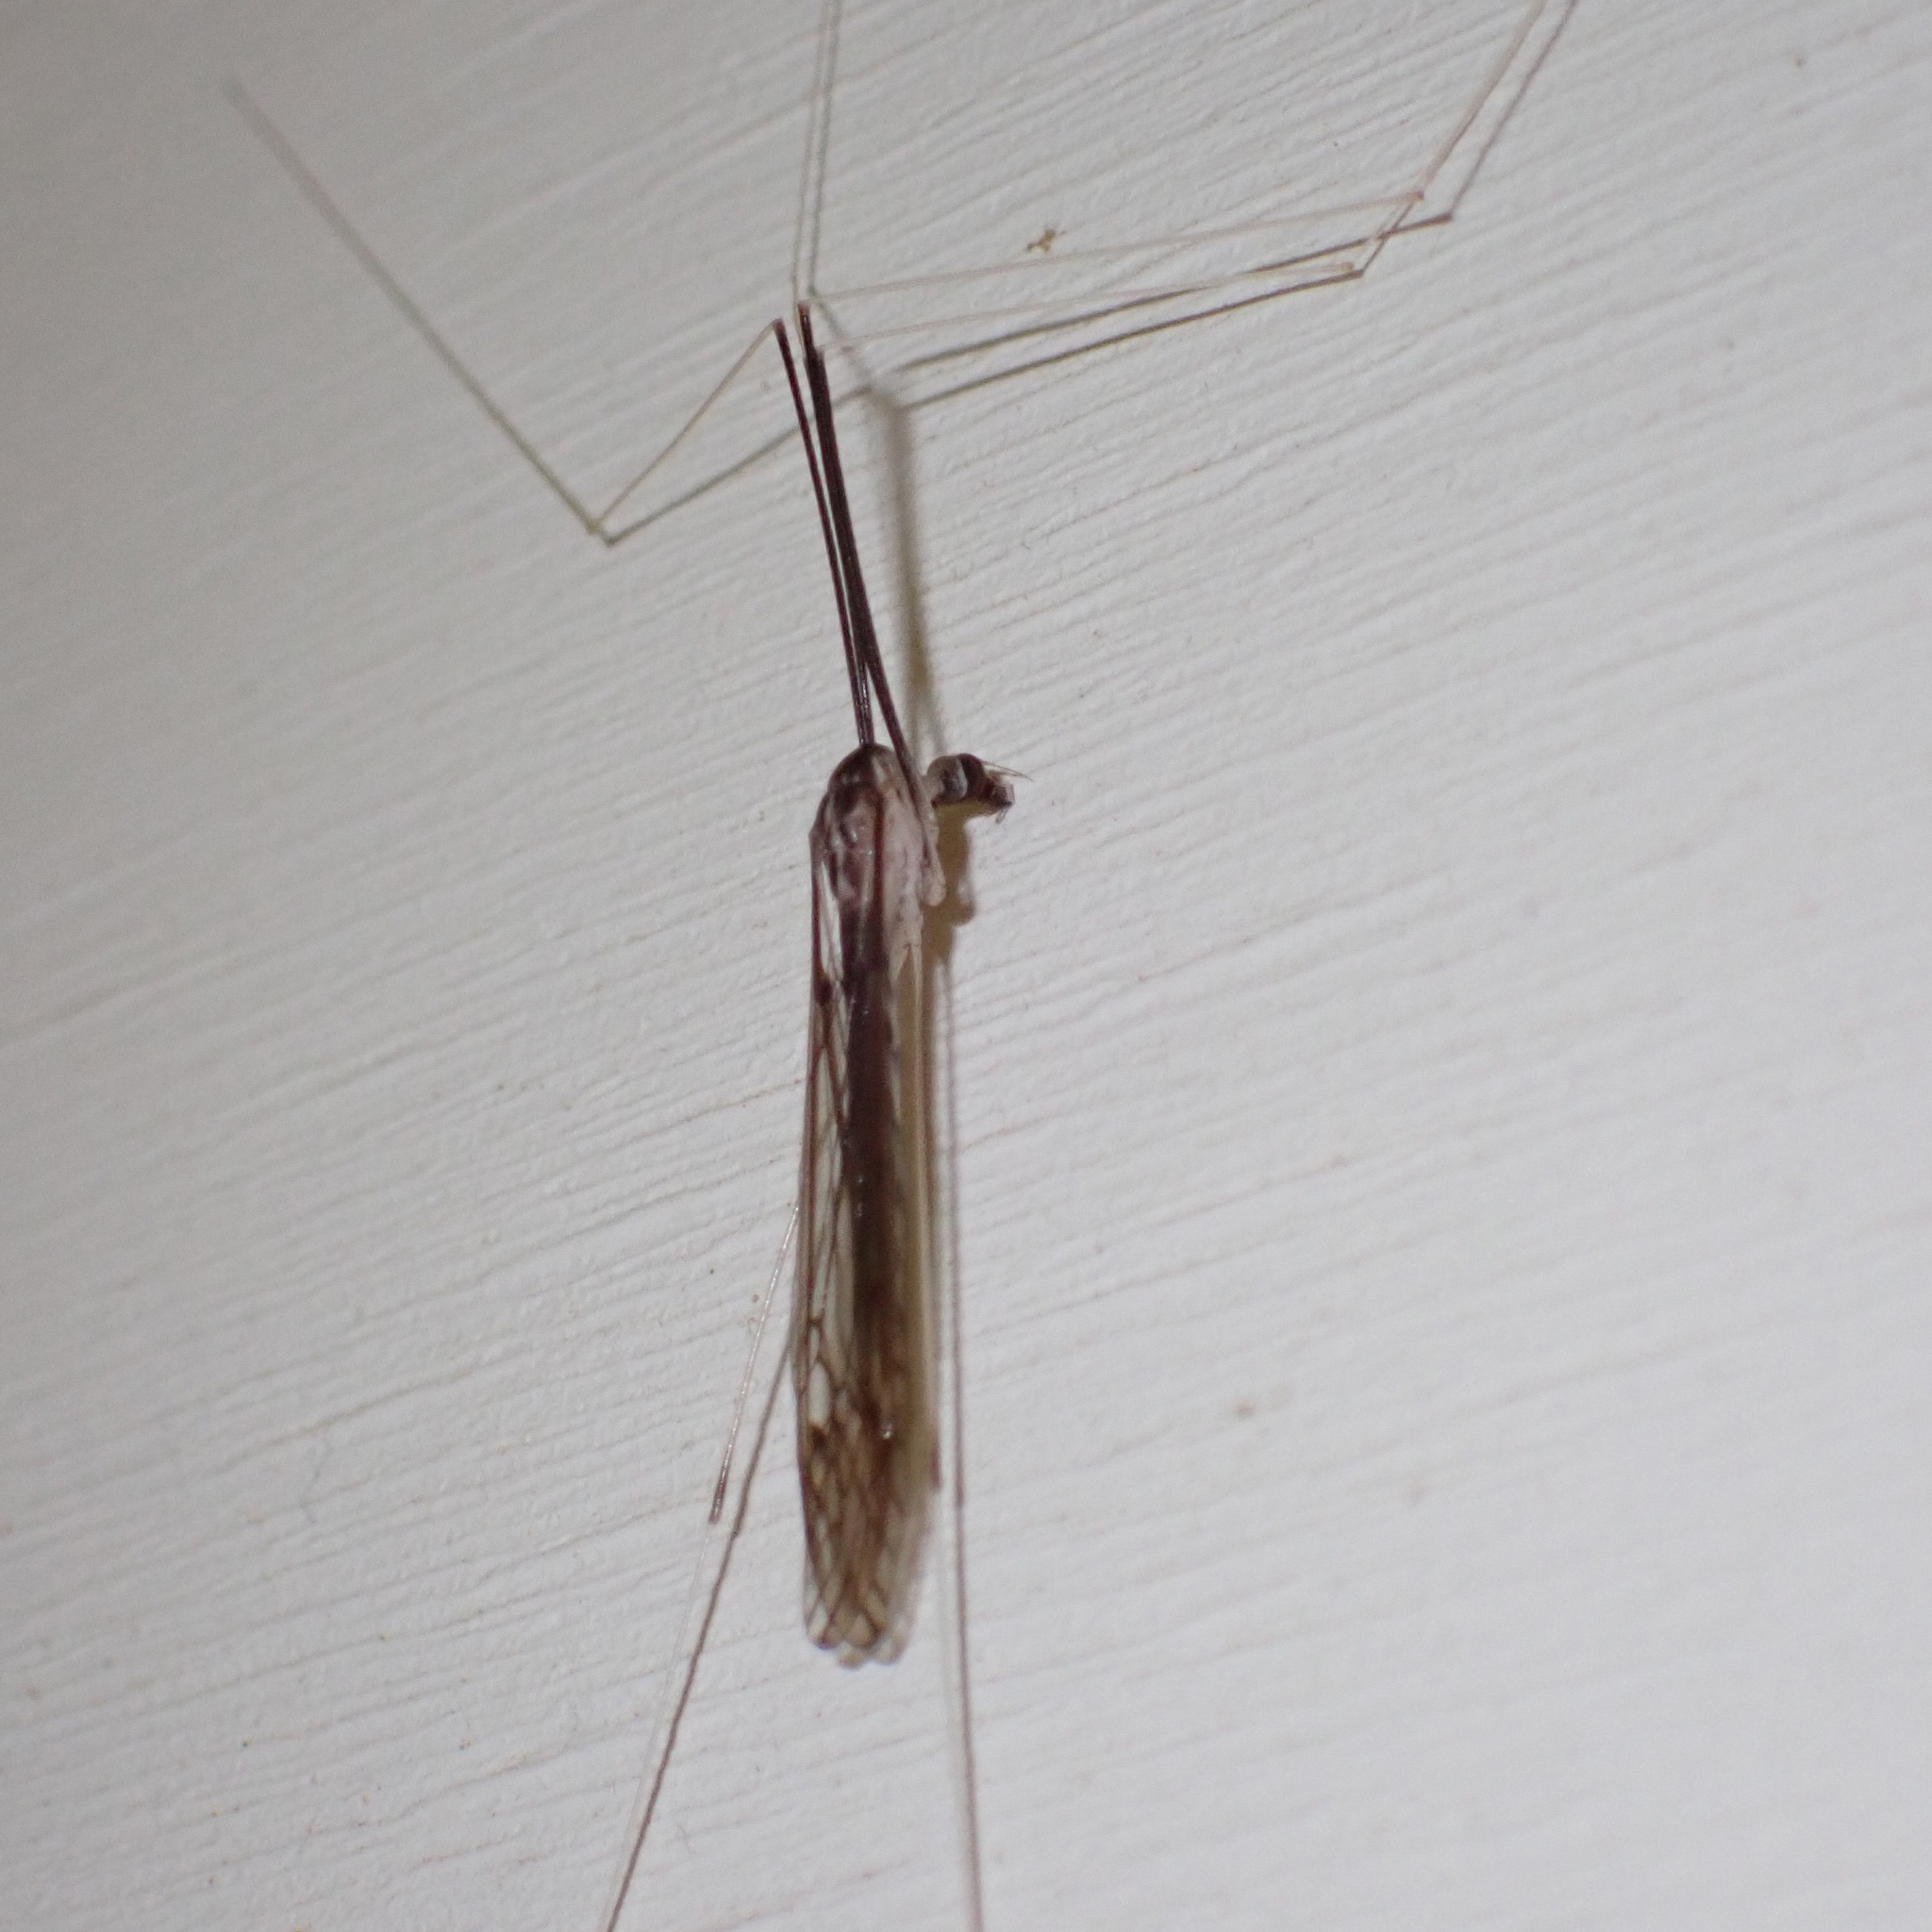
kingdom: Animalia
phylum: Arthropoda
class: Insecta
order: Diptera
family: Tipulidae
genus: Brachypremna
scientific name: Brachypremna dispellens
